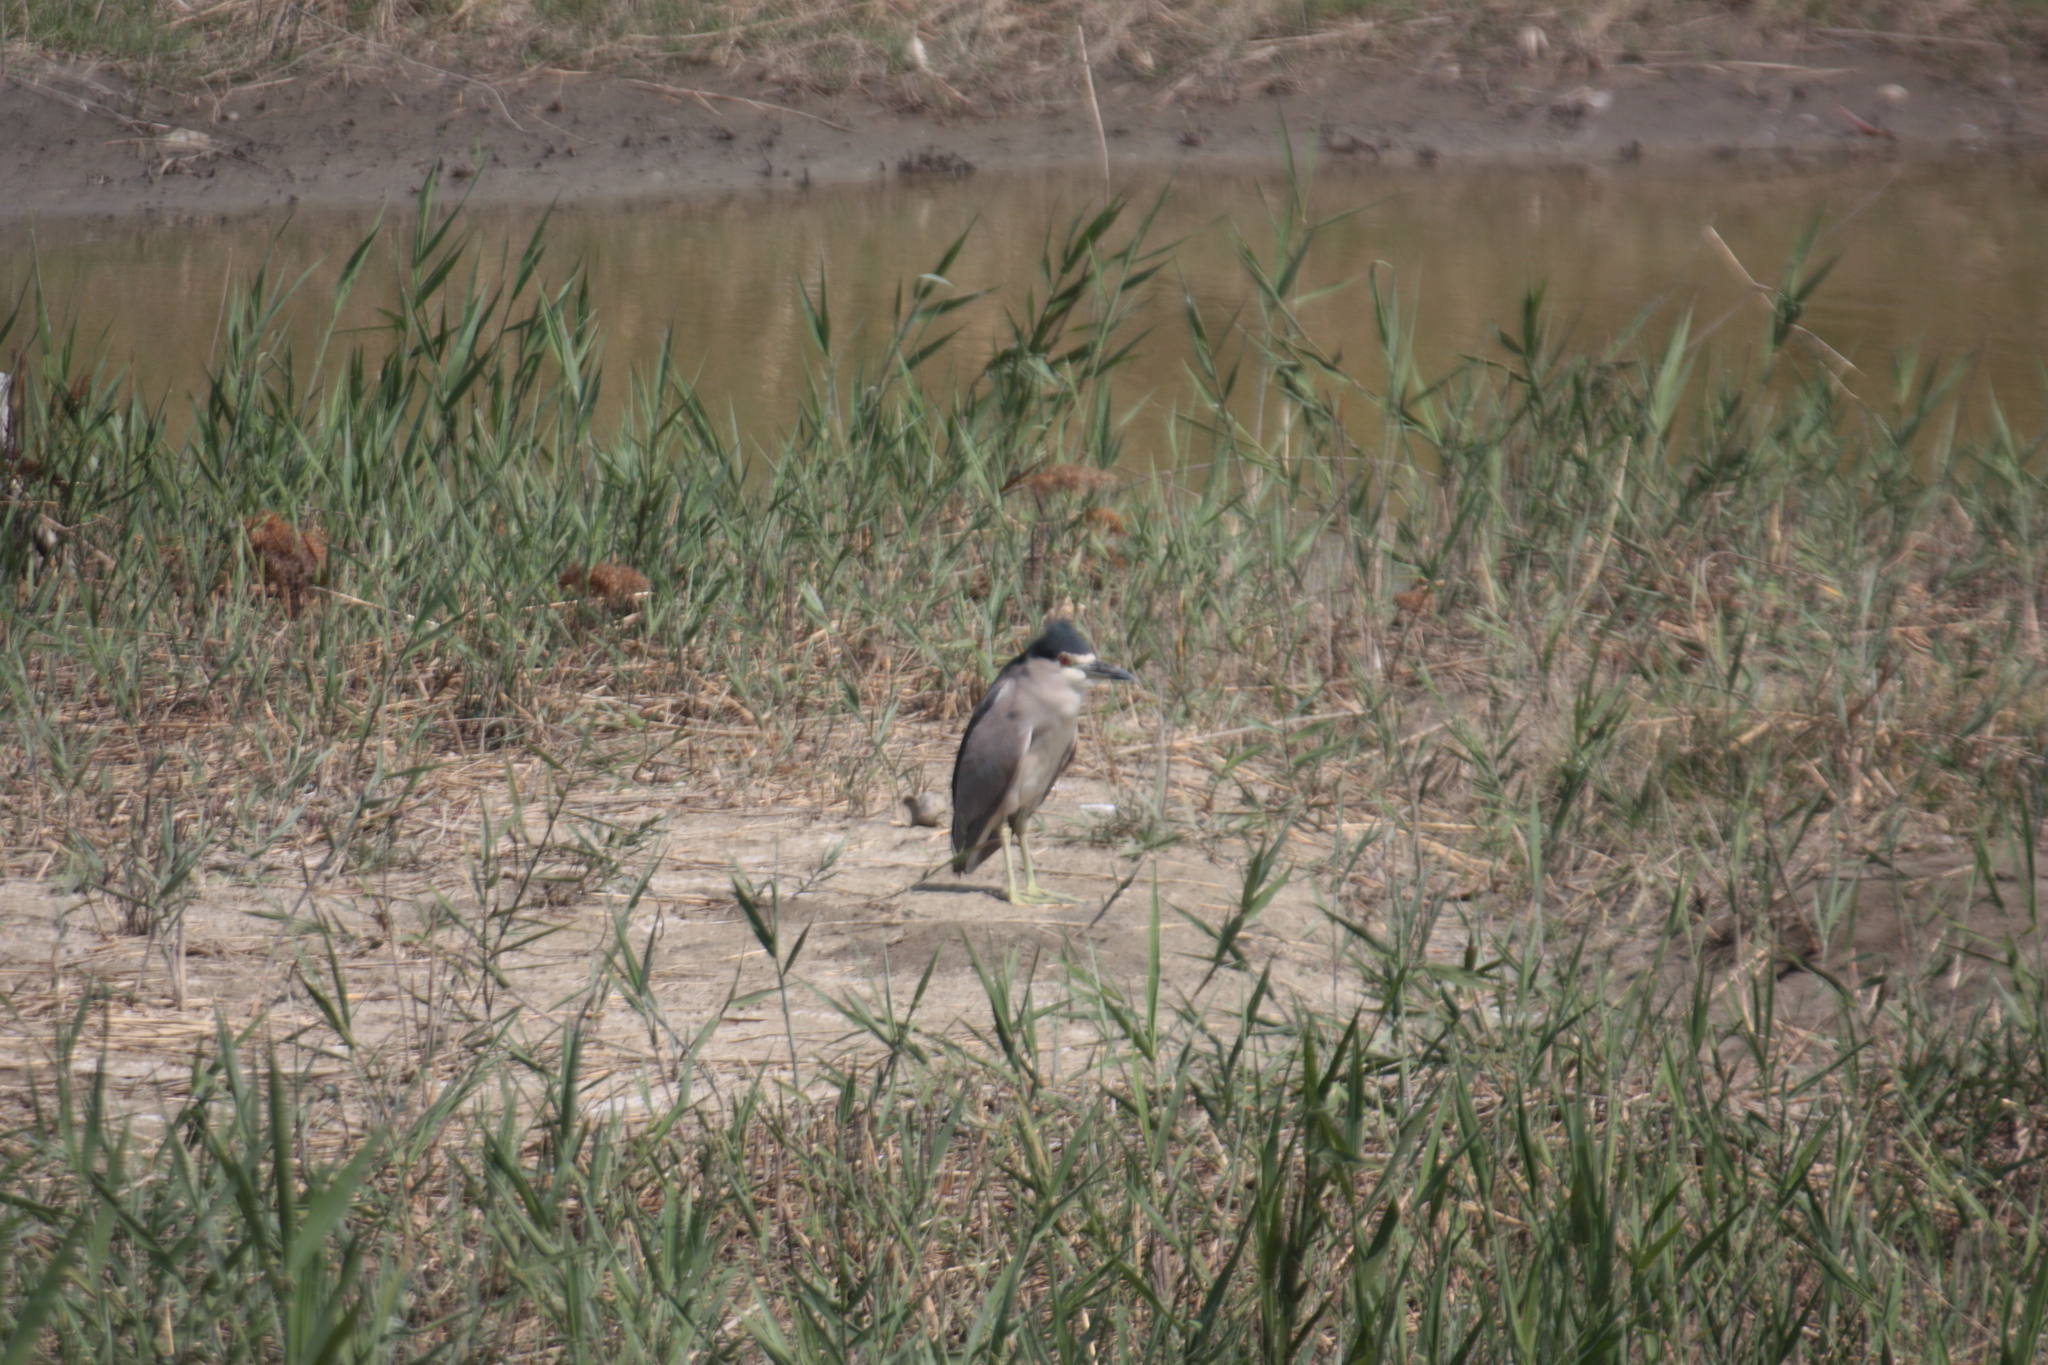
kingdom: Animalia
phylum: Chordata
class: Aves
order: Pelecaniformes
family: Ardeidae
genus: Nycticorax
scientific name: Nycticorax nycticorax
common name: Black-crowned night heron
